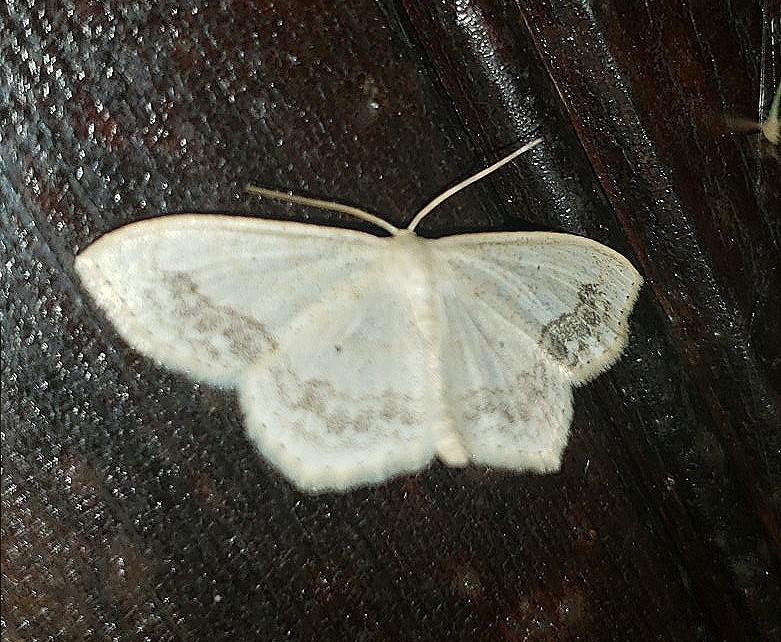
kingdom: Animalia
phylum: Arthropoda
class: Insecta
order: Lepidoptera
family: Geometridae
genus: Scopula
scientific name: Scopula limboundata
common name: Large lace border
